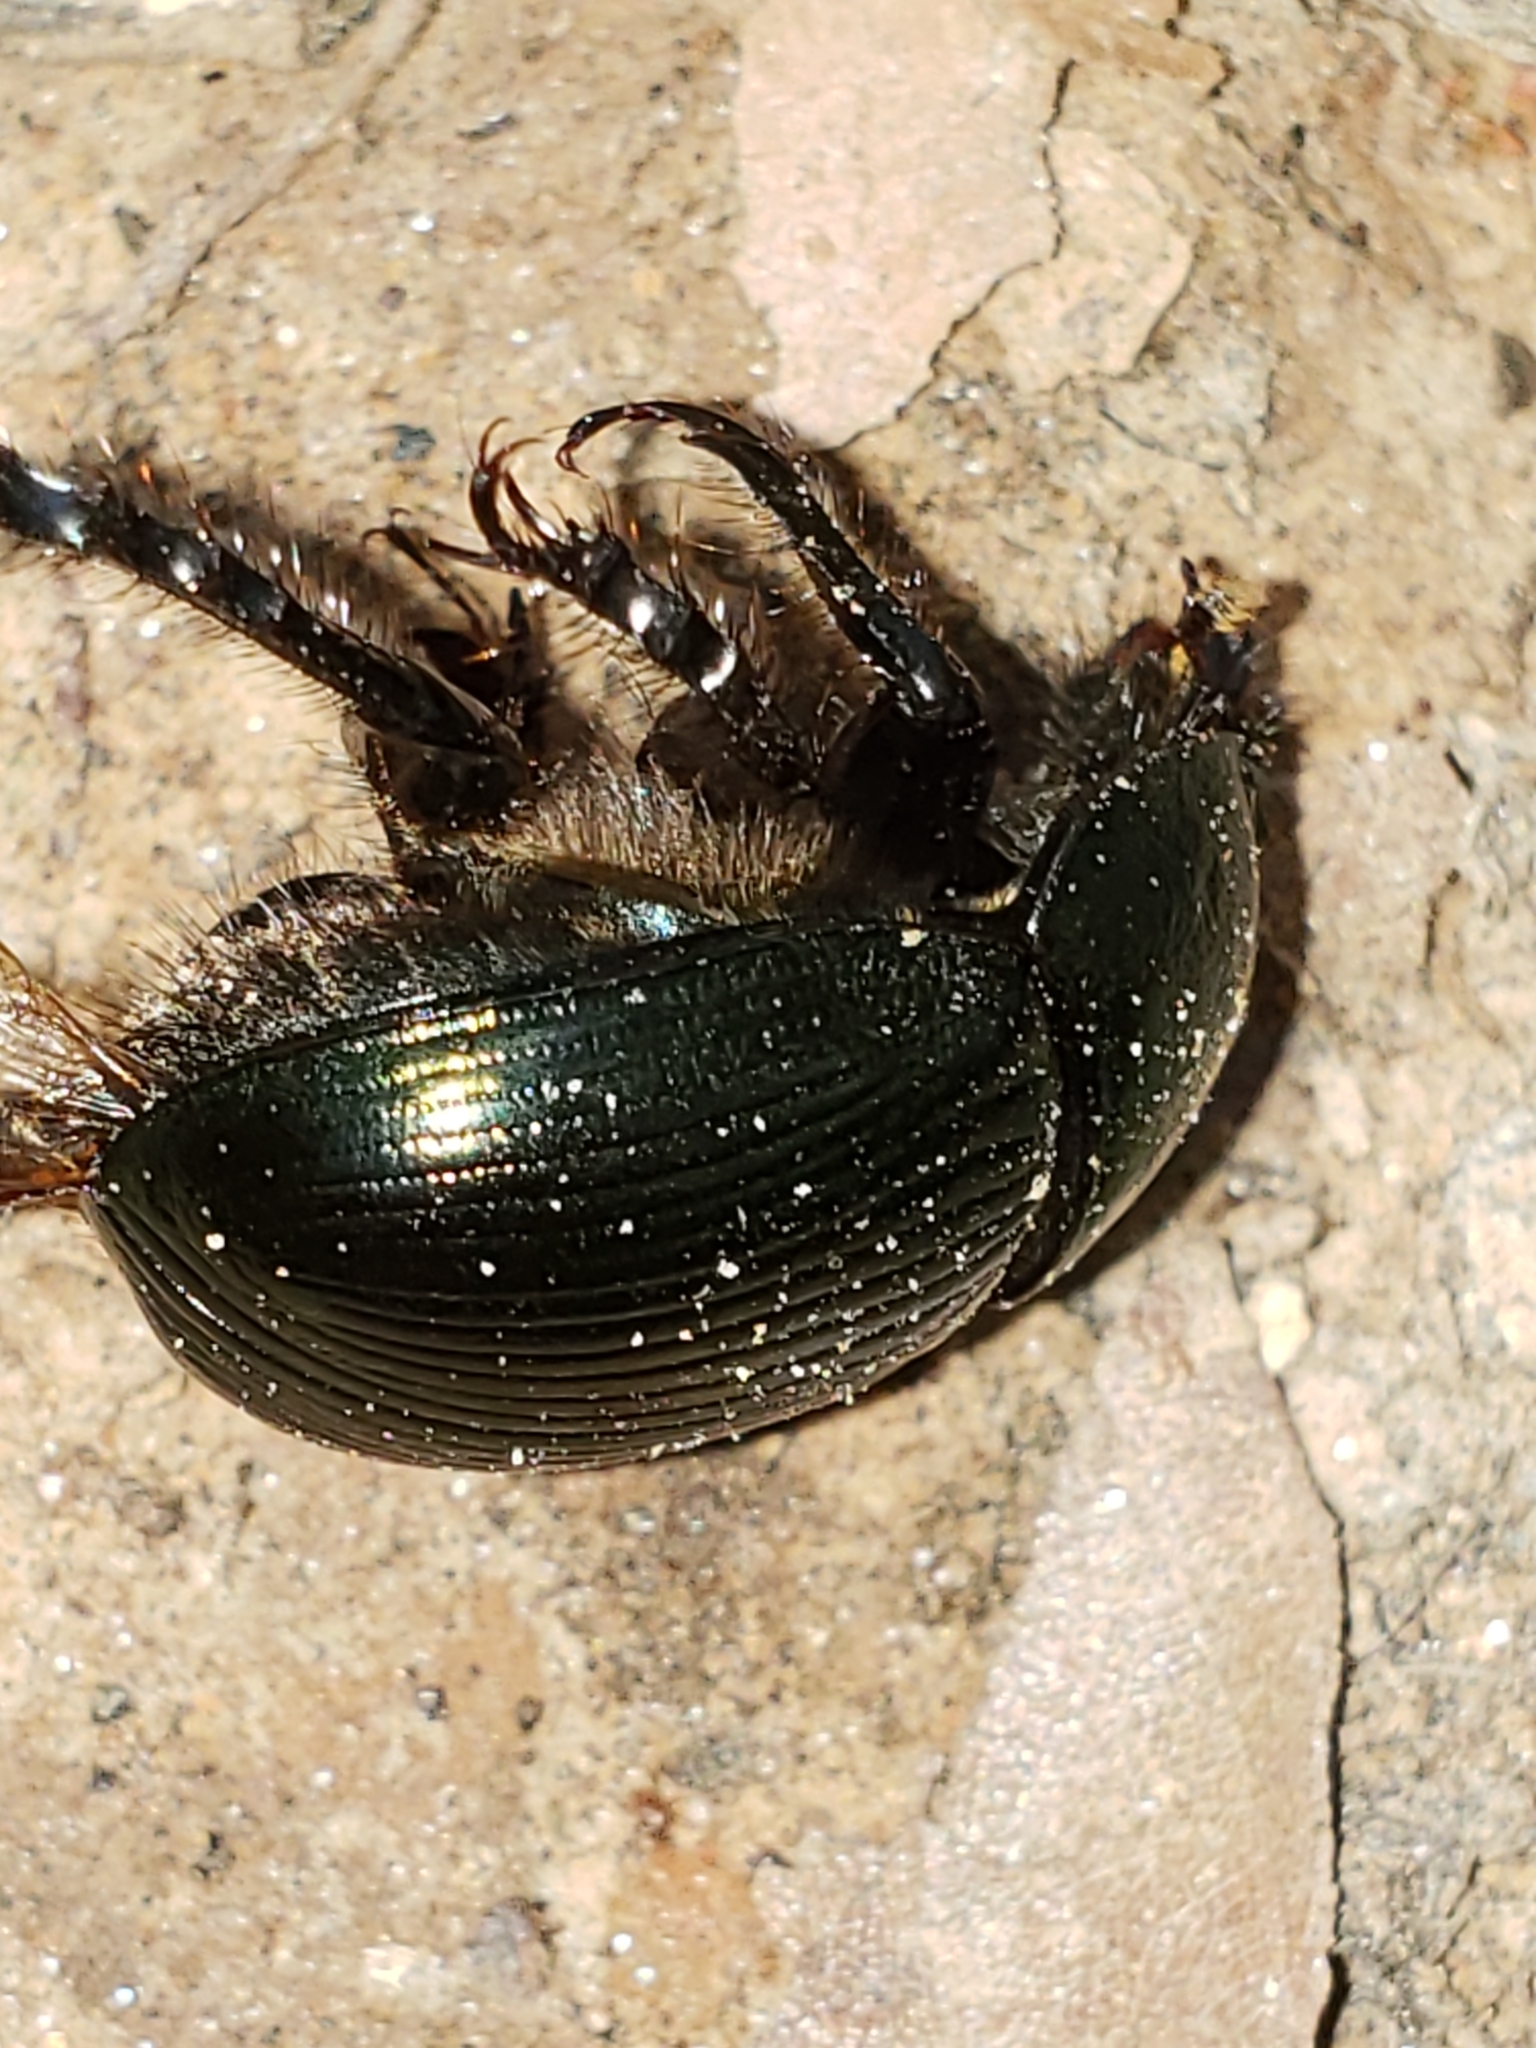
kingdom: Animalia
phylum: Arthropoda
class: Insecta
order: Coleoptera
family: Geotrupidae
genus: Geotrupes
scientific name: Geotrupes splendidus
